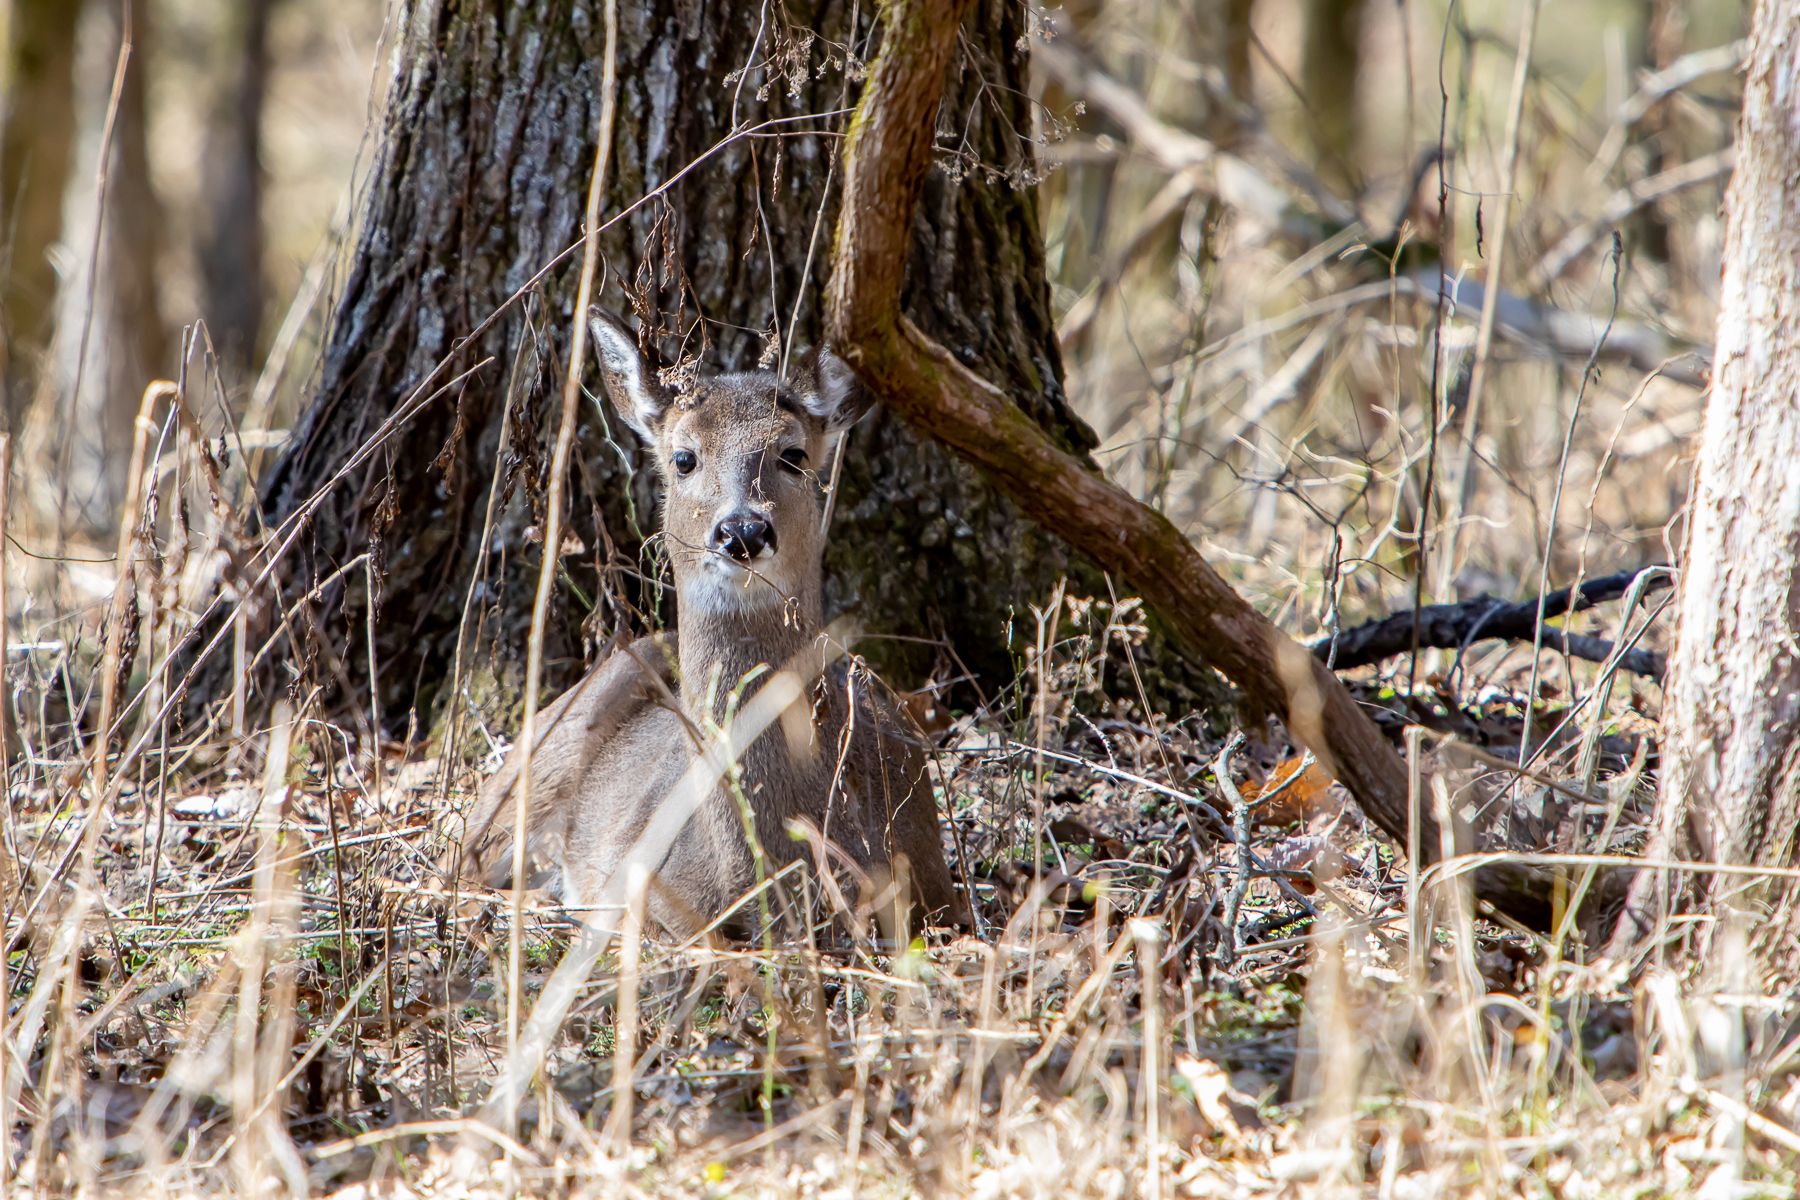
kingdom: Animalia
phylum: Chordata
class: Mammalia
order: Artiodactyla
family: Cervidae
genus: Odocoileus
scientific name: Odocoileus virginianus
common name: White-tailed deer
